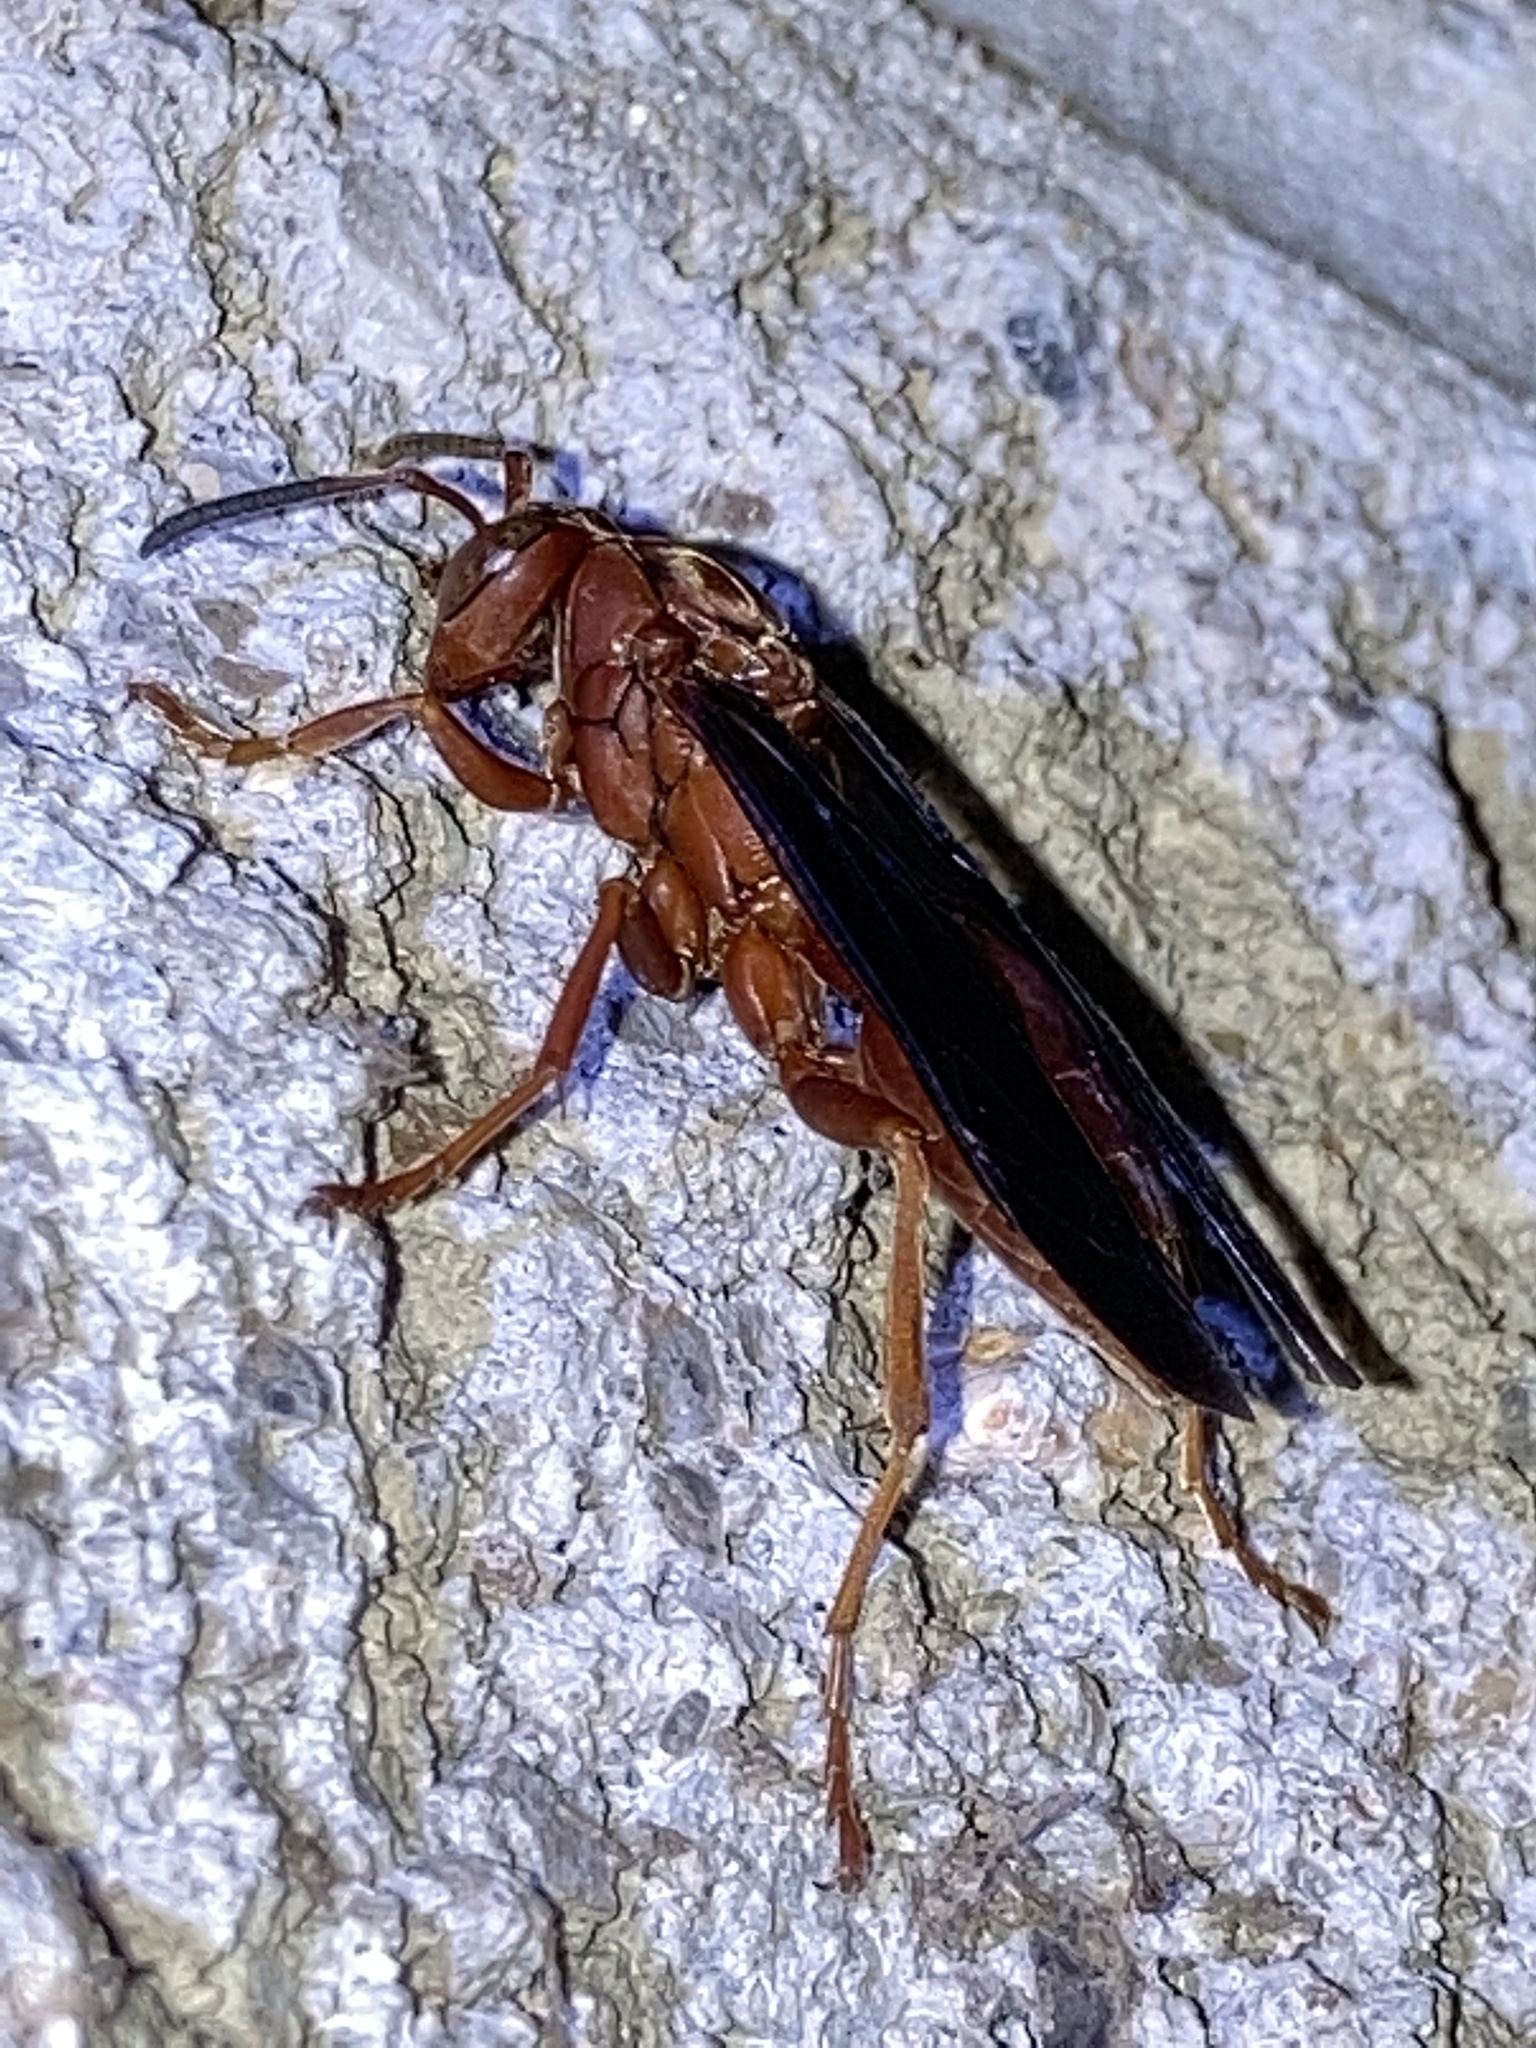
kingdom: Animalia
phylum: Arthropoda
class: Insecta
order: Hymenoptera
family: Eumenidae
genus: Polistes
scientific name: Polistes carolina
